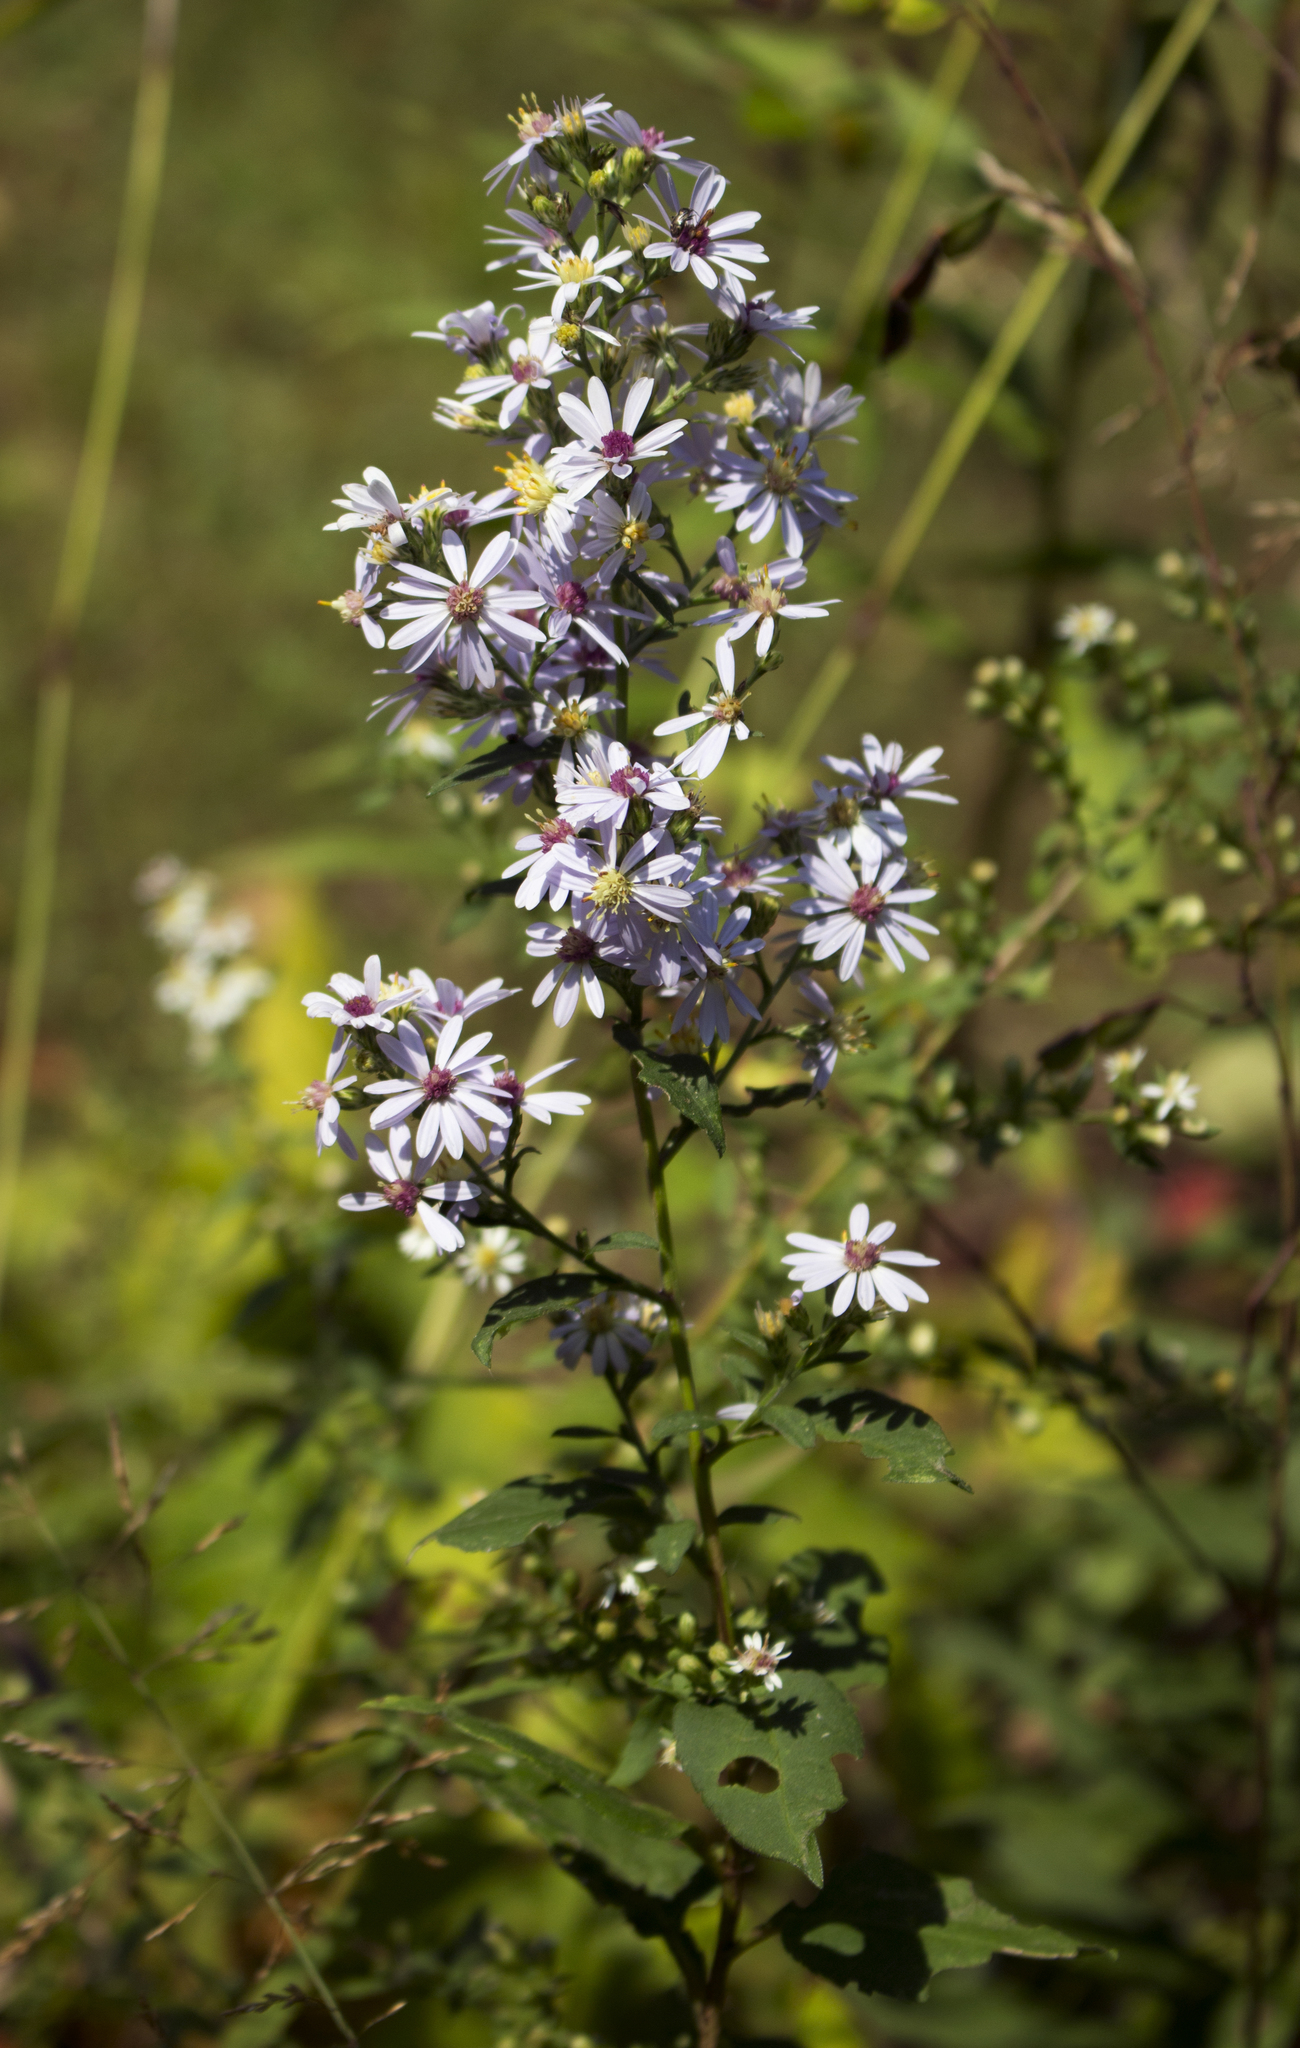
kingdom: Plantae
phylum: Tracheophyta
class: Magnoliopsida
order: Asterales
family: Asteraceae
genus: Symphyotrichum
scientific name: Symphyotrichum cordifolium
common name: Beeweed
